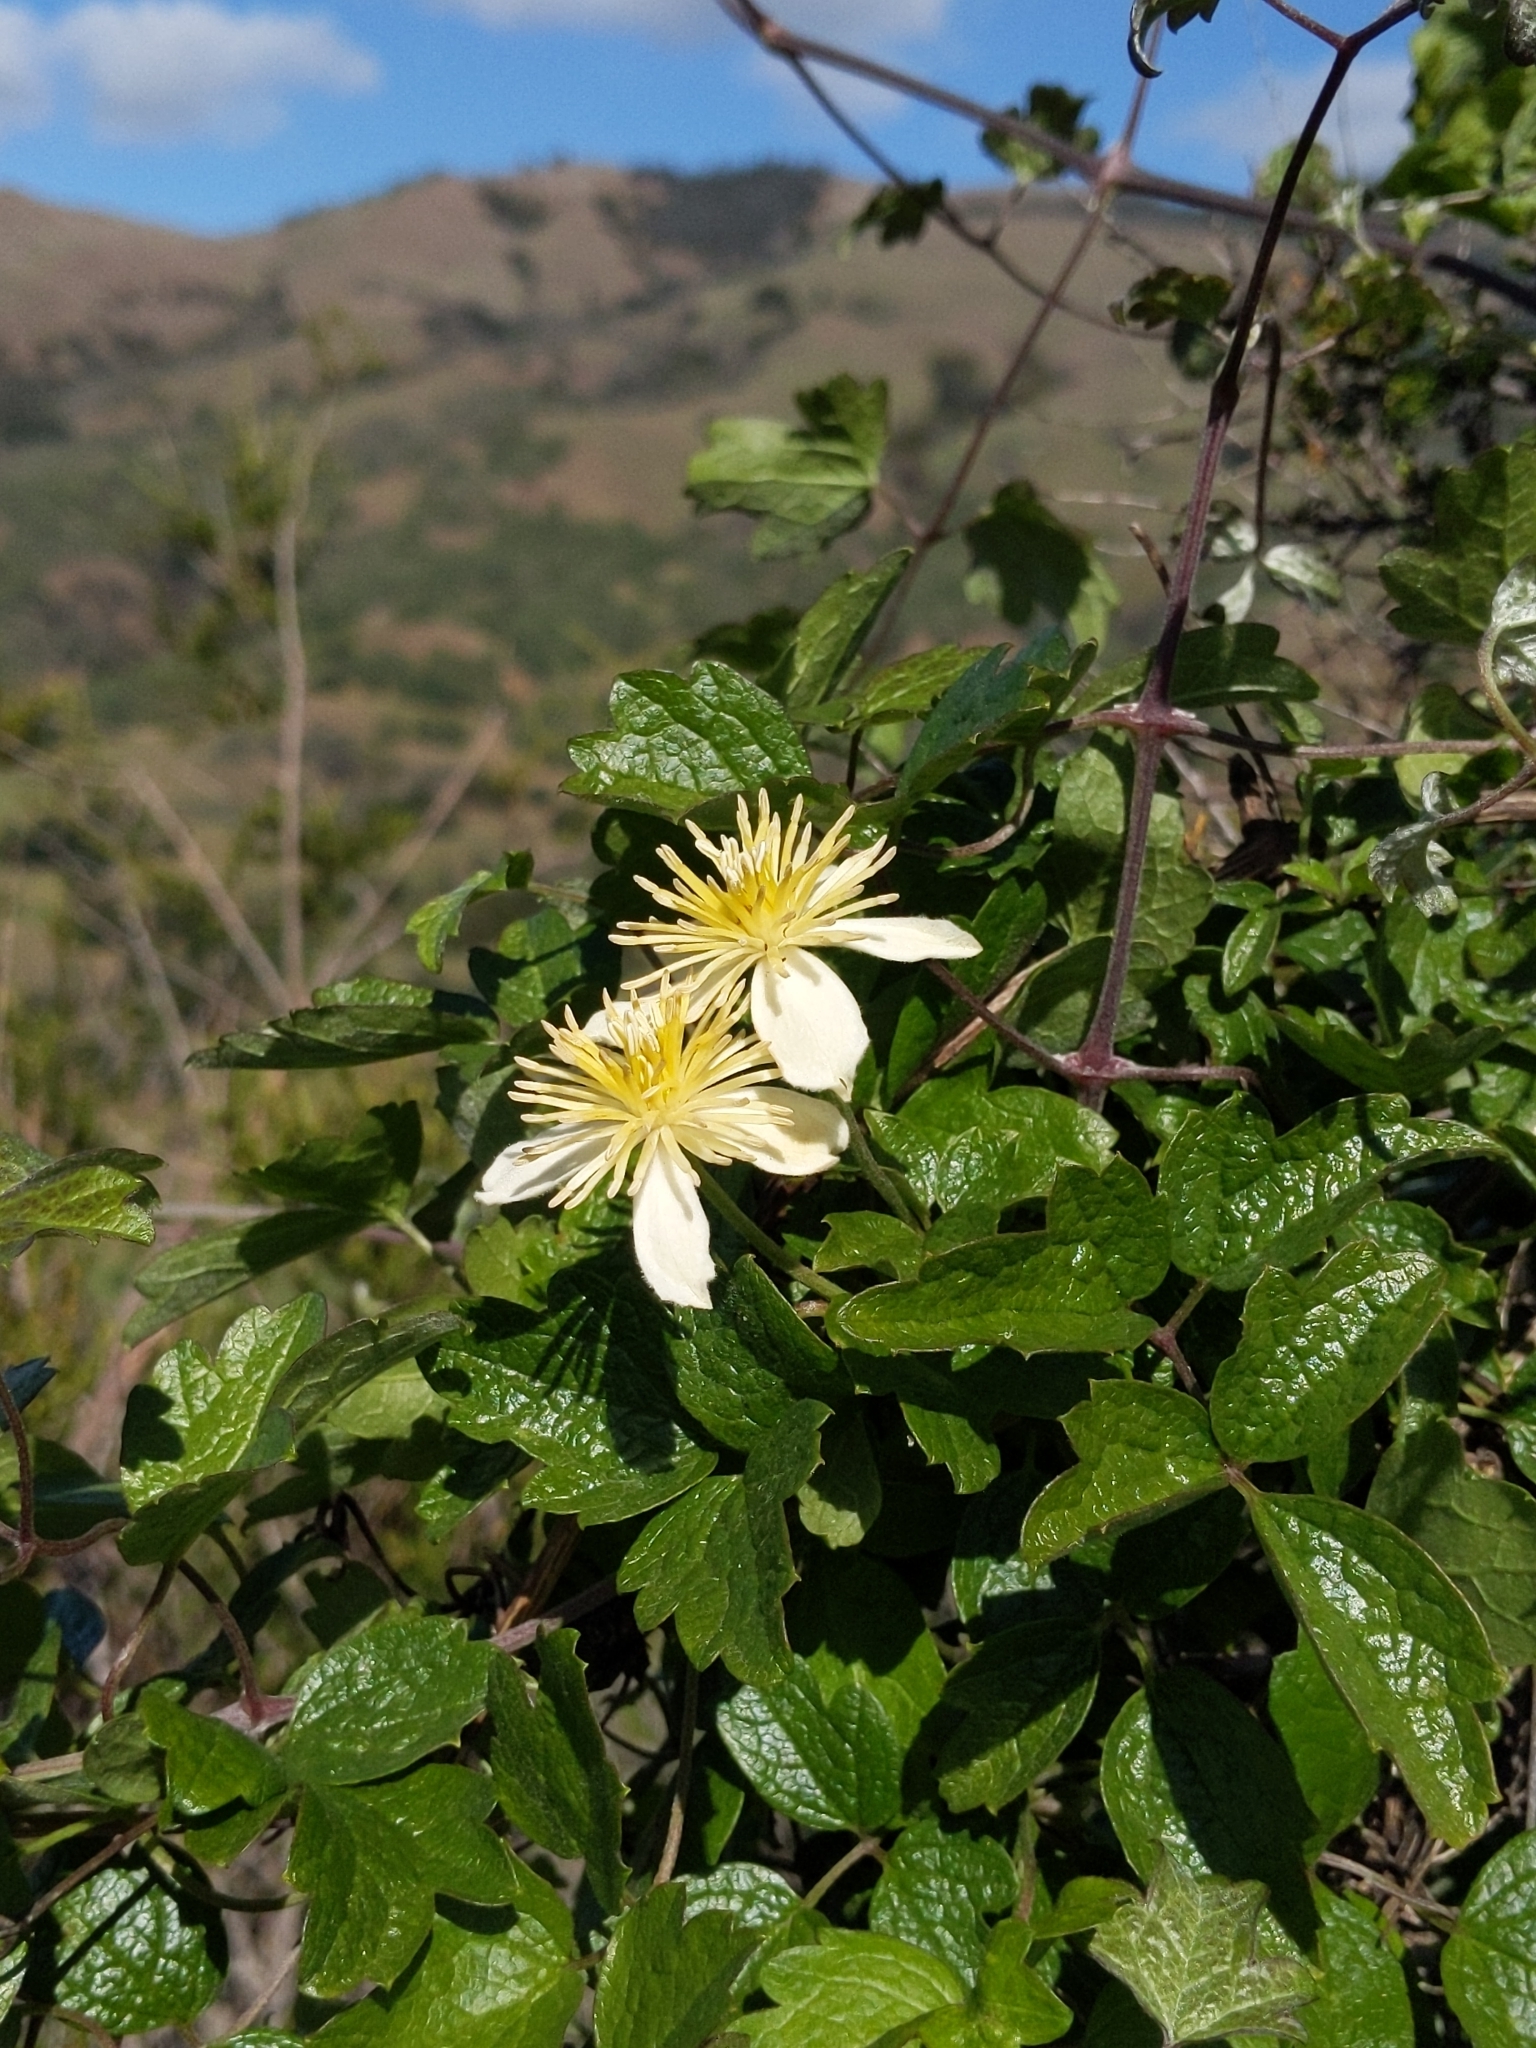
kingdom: Plantae
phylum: Tracheophyta
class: Magnoliopsida
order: Ranunculales
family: Ranunculaceae
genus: Clematis
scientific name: Clematis lasiantha
